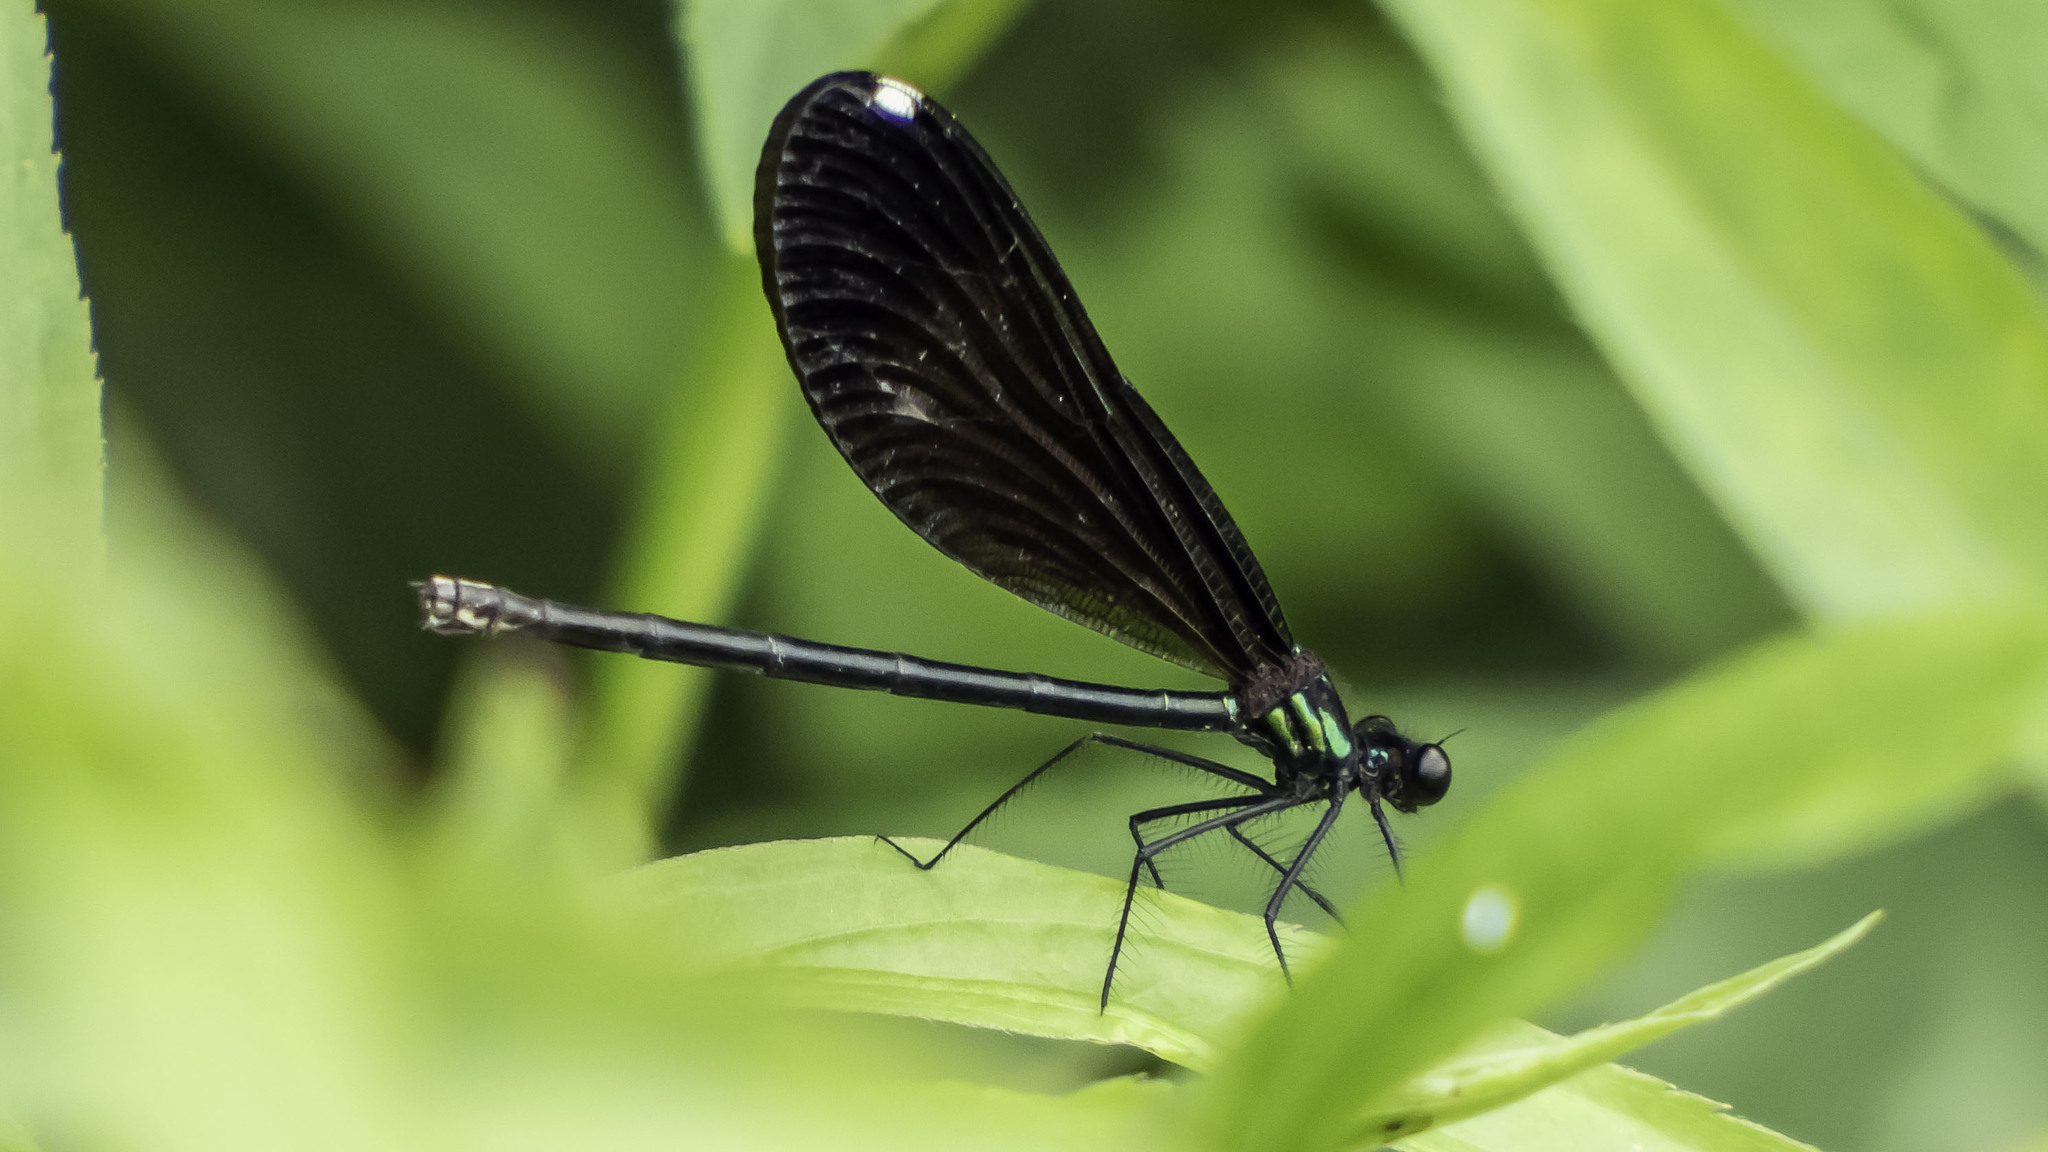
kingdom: Animalia
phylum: Arthropoda
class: Insecta
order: Odonata
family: Calopterygidae
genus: Calopteryx
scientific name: Calopteryx maculata
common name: Ebony jewelwing
